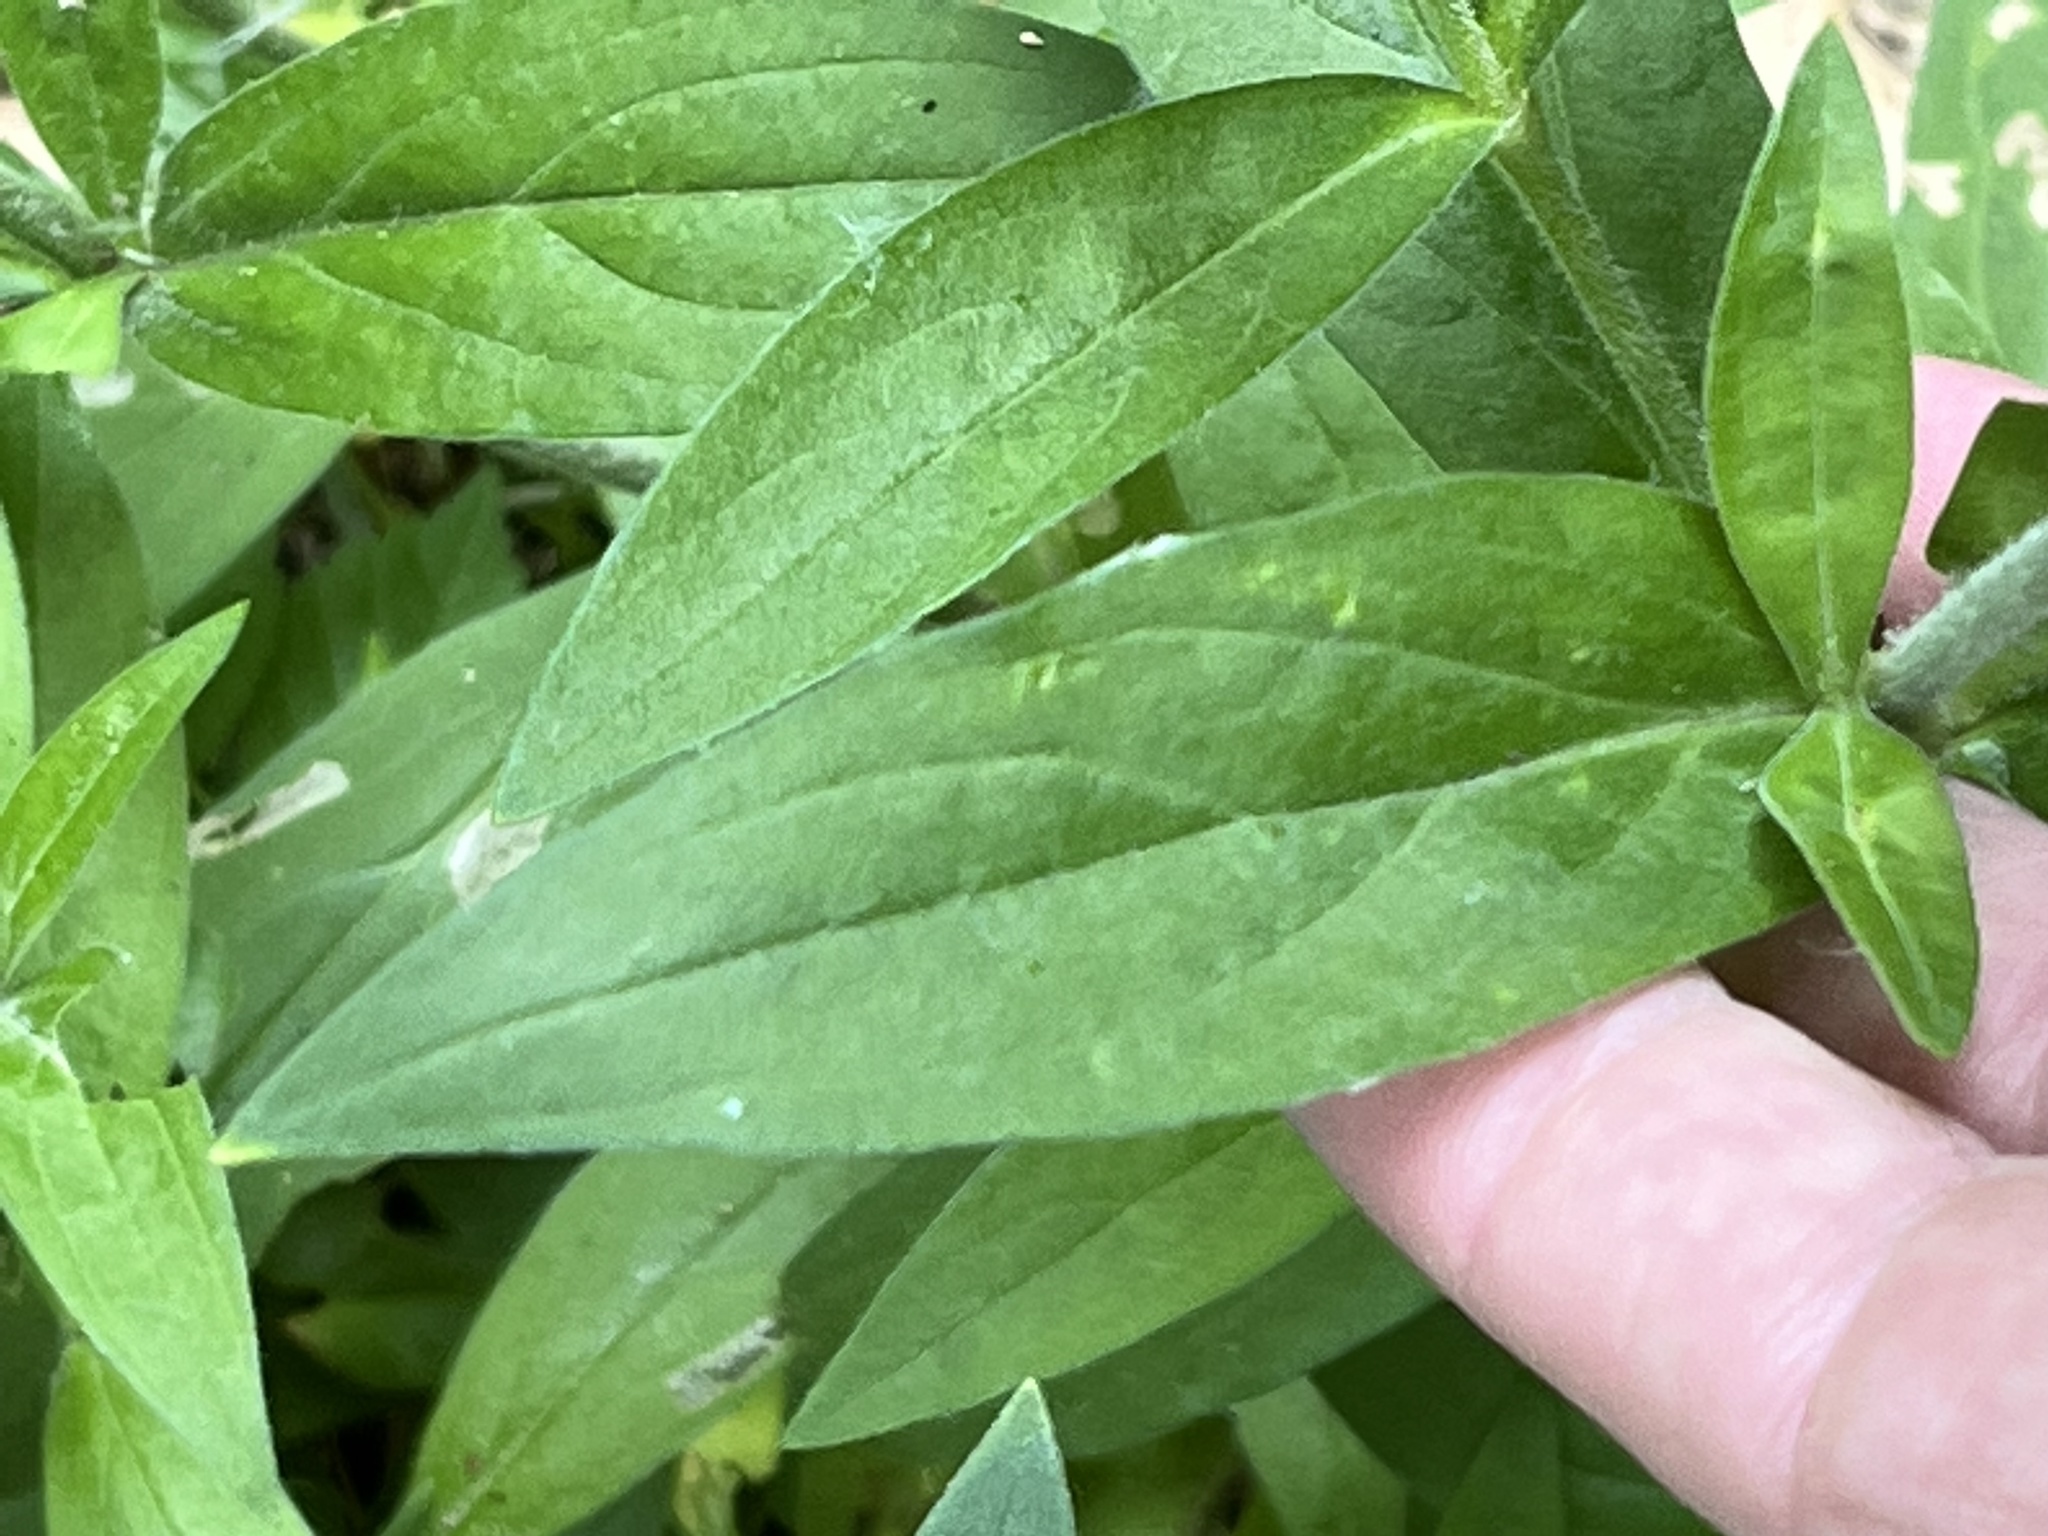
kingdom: Plantae
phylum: Tracheophyta
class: Magnoliopsida
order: Caryophyllales
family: Caryophyllaceae
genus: Silene
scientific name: Silene latifolia
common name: White campion
